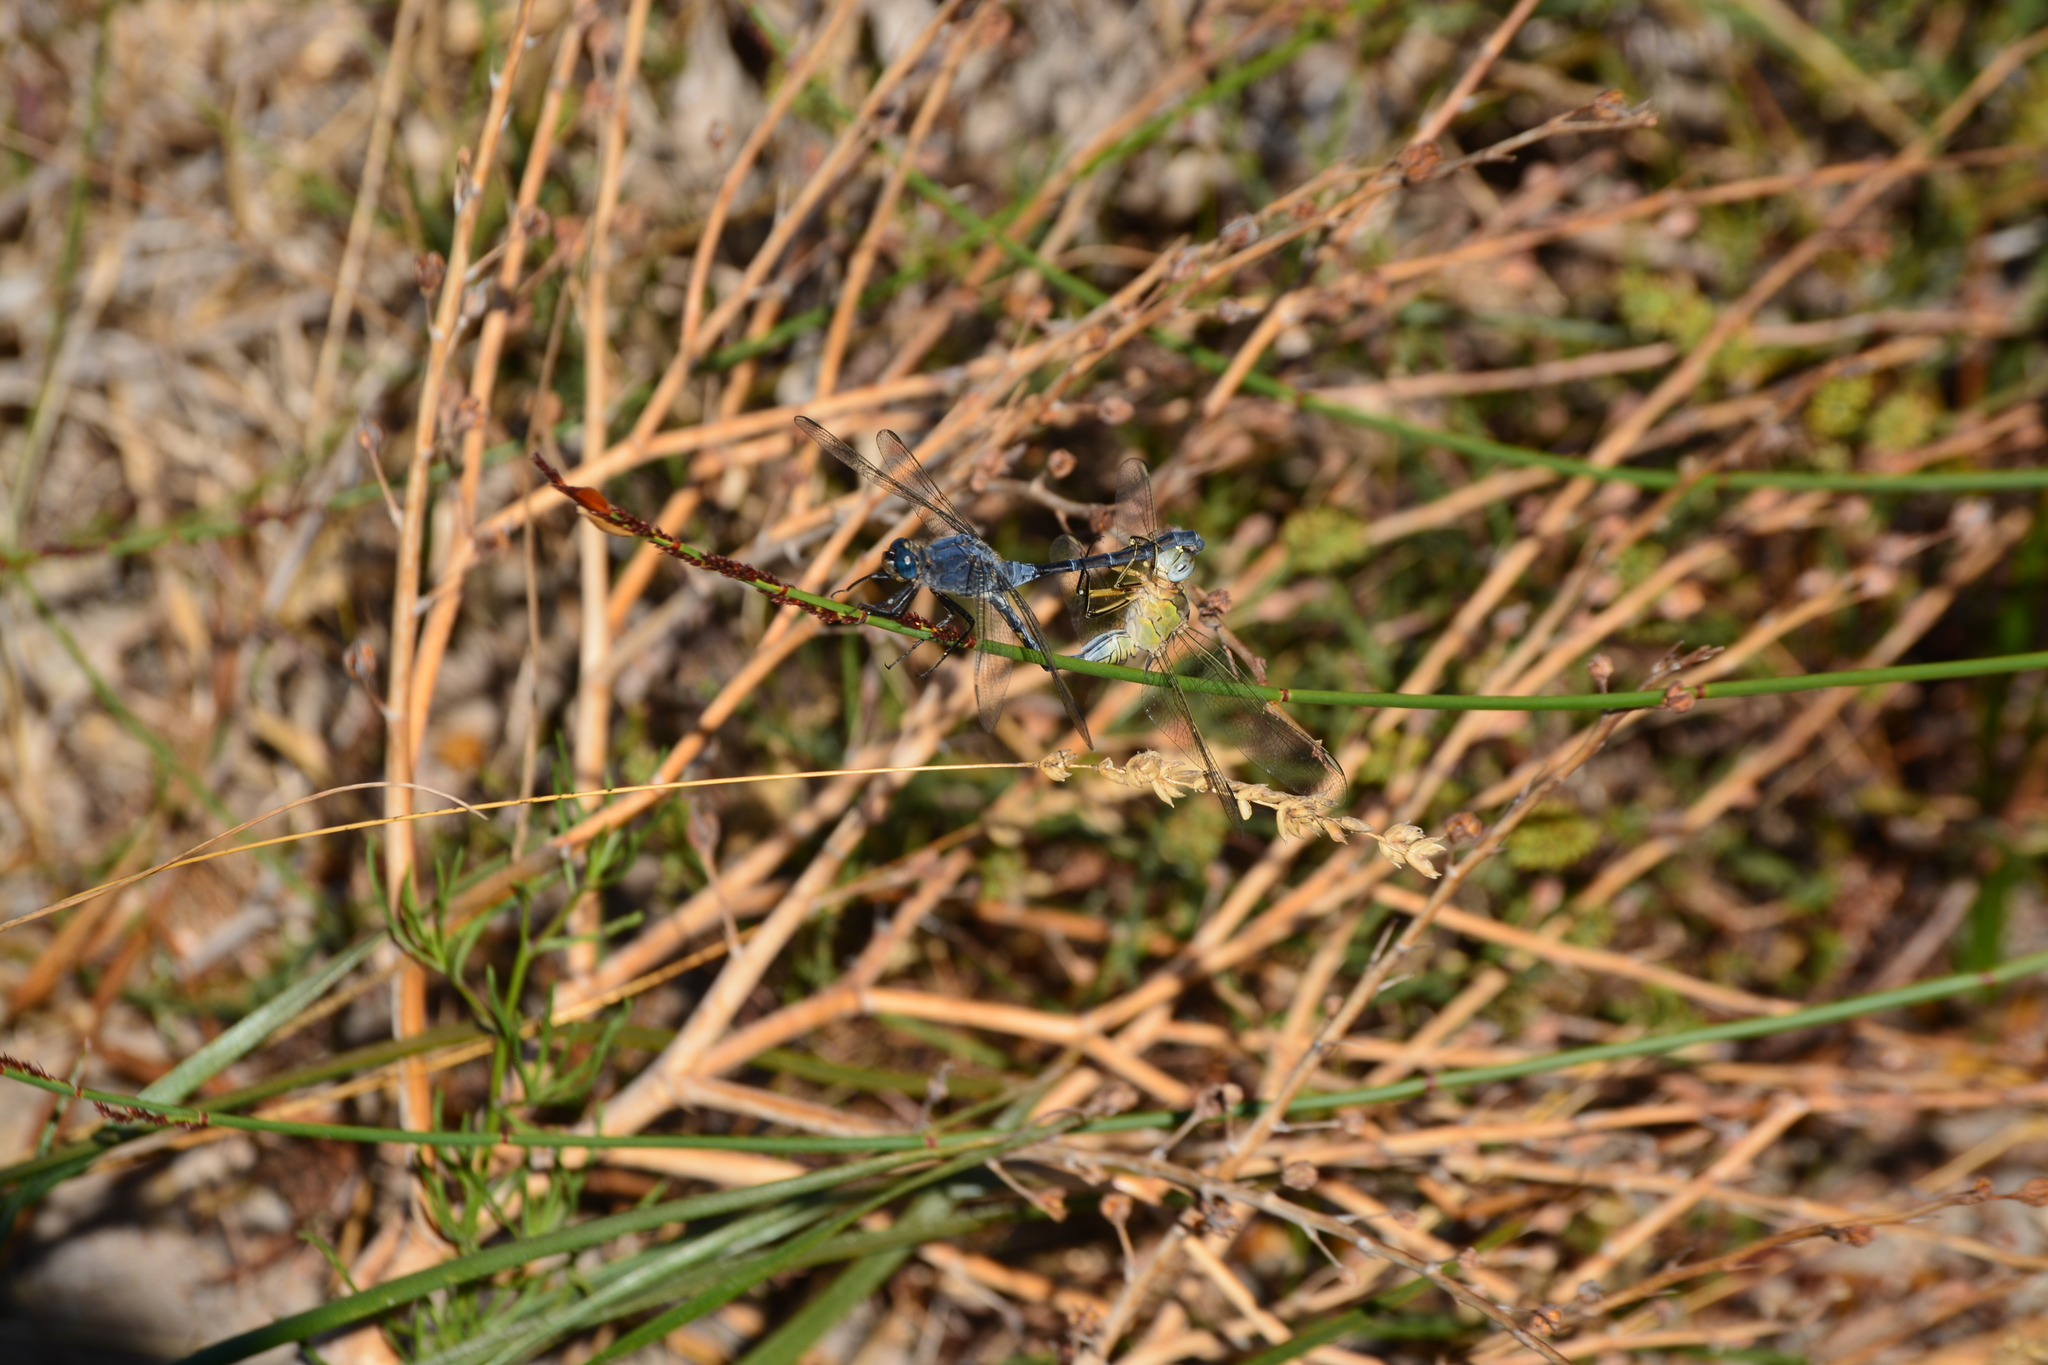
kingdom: Animalia
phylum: Arthropoda
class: Insecta
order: Odonata
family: Libellulidae
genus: Orthetrum
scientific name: Orthetrum trinacria
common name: Long skimmer
